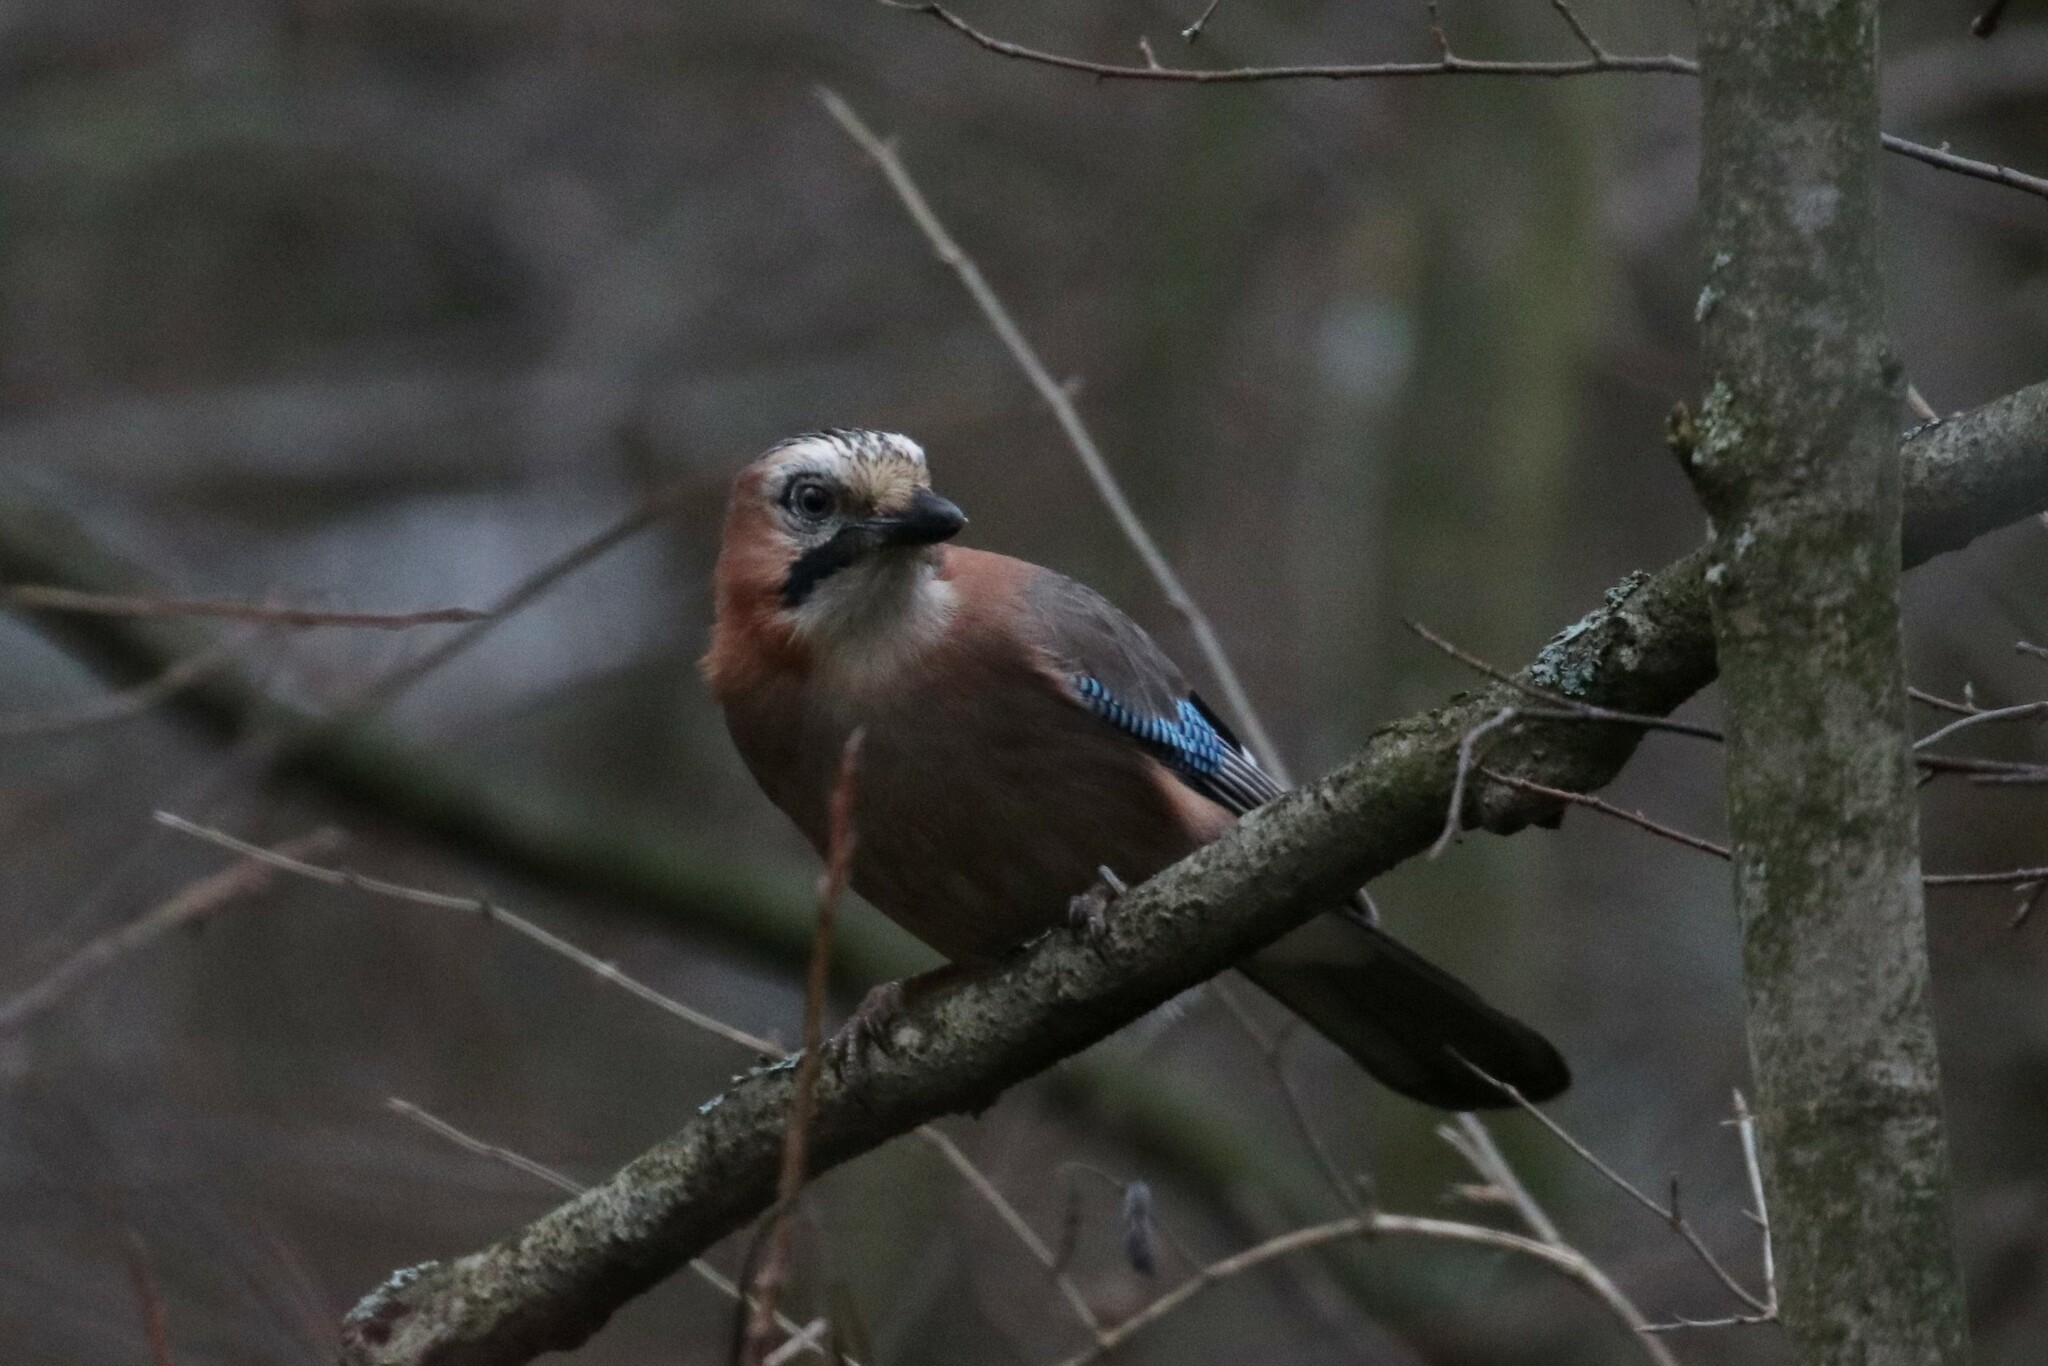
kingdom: Animalia
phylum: Chordata
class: Aves
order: Passeriformes
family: Corvidae
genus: Garrulus
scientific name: Garrulus glandarius
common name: Eurasian jay
